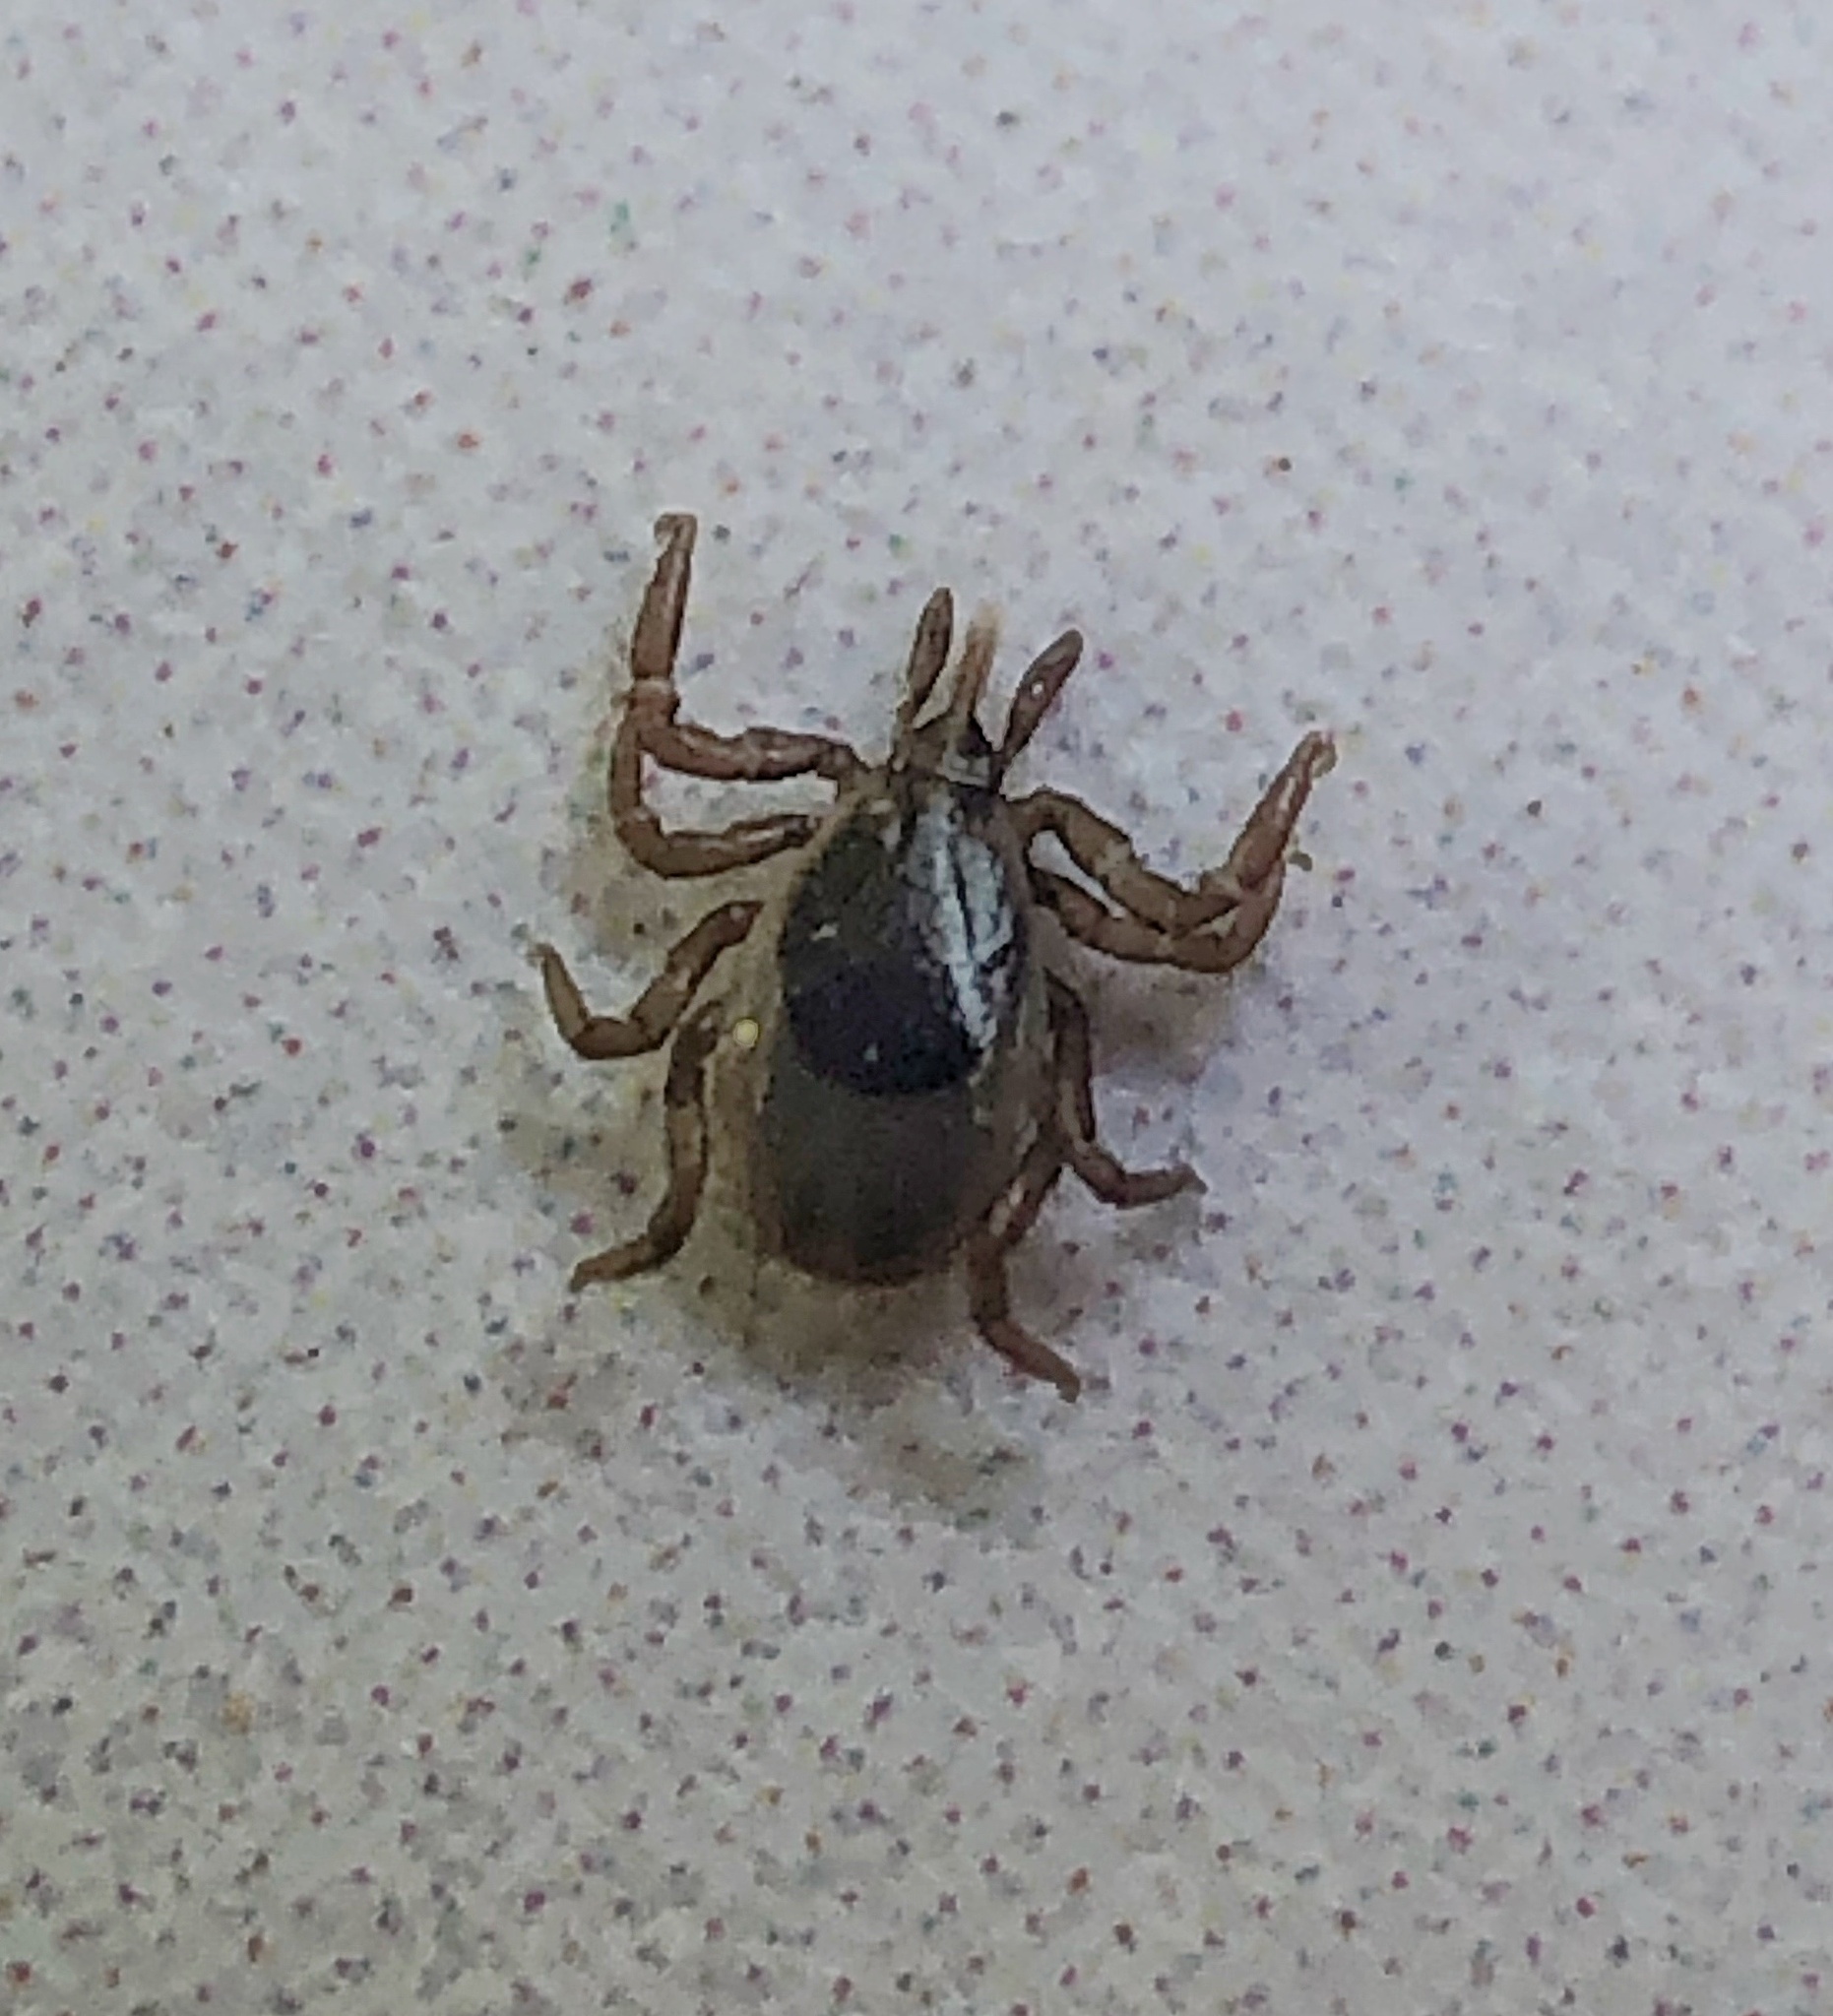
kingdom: Animalia
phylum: Arthropoda
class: Arachnida
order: Ixodida
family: Ixodidae
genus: Ixodes
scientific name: Ixodes scapularis
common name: Black legged tick
